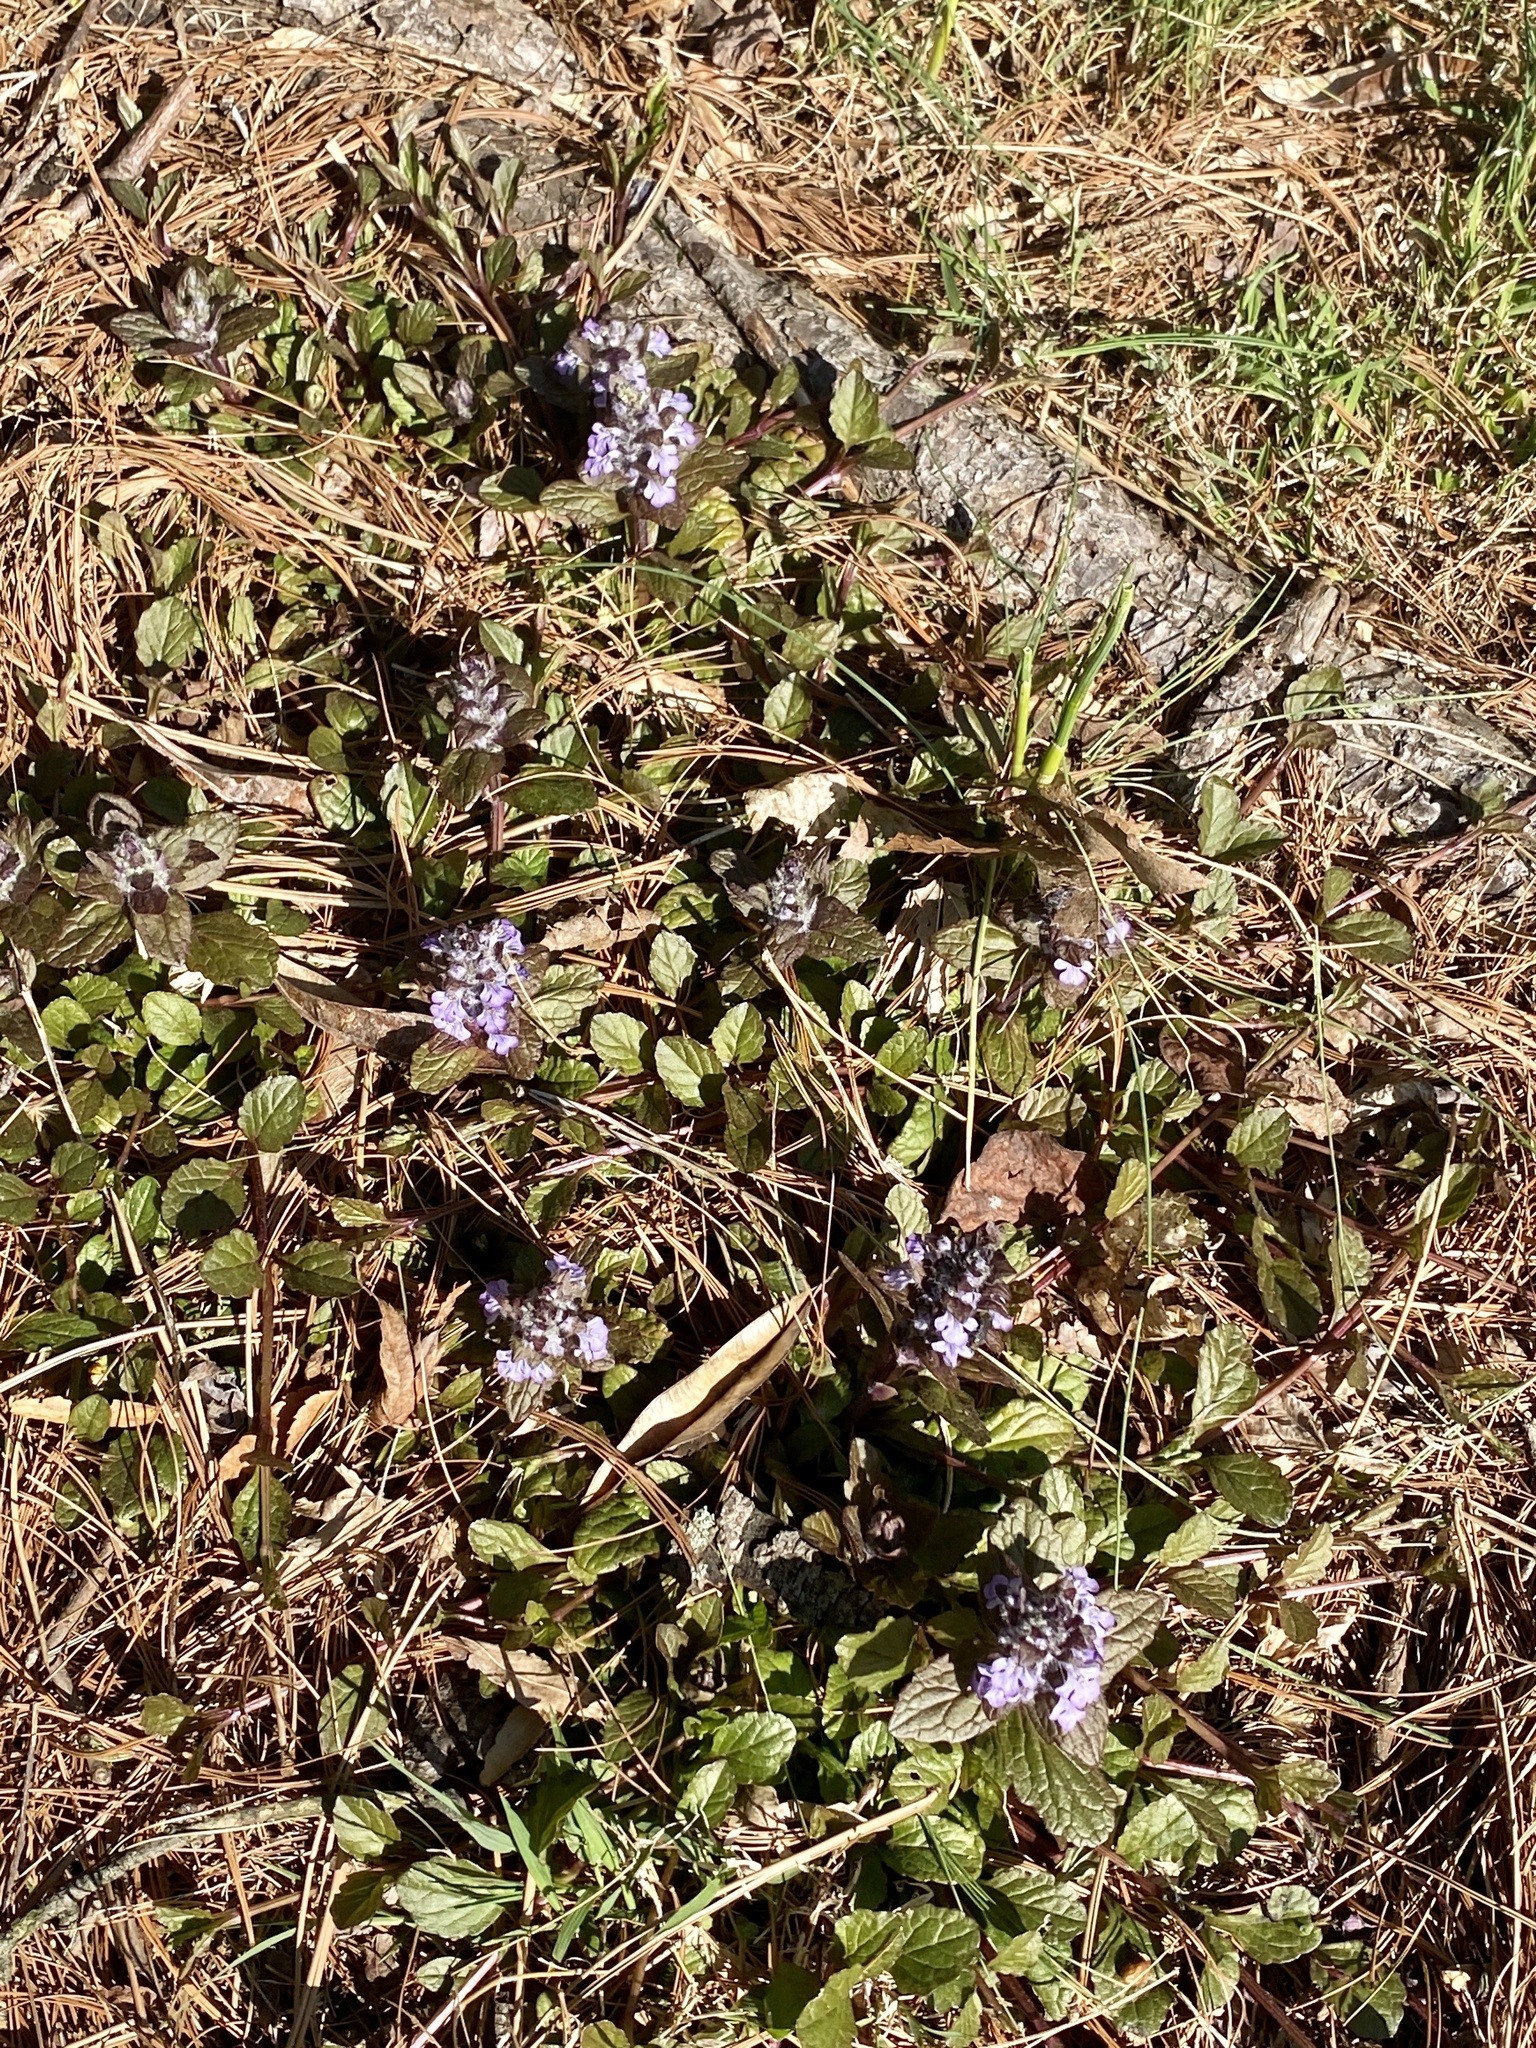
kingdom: Plantae
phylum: Tracheophyta
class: Magnoliopsida
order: Lamiales
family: Lamiaceae
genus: Ajuga
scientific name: Ajuga reptans
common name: Bugle
